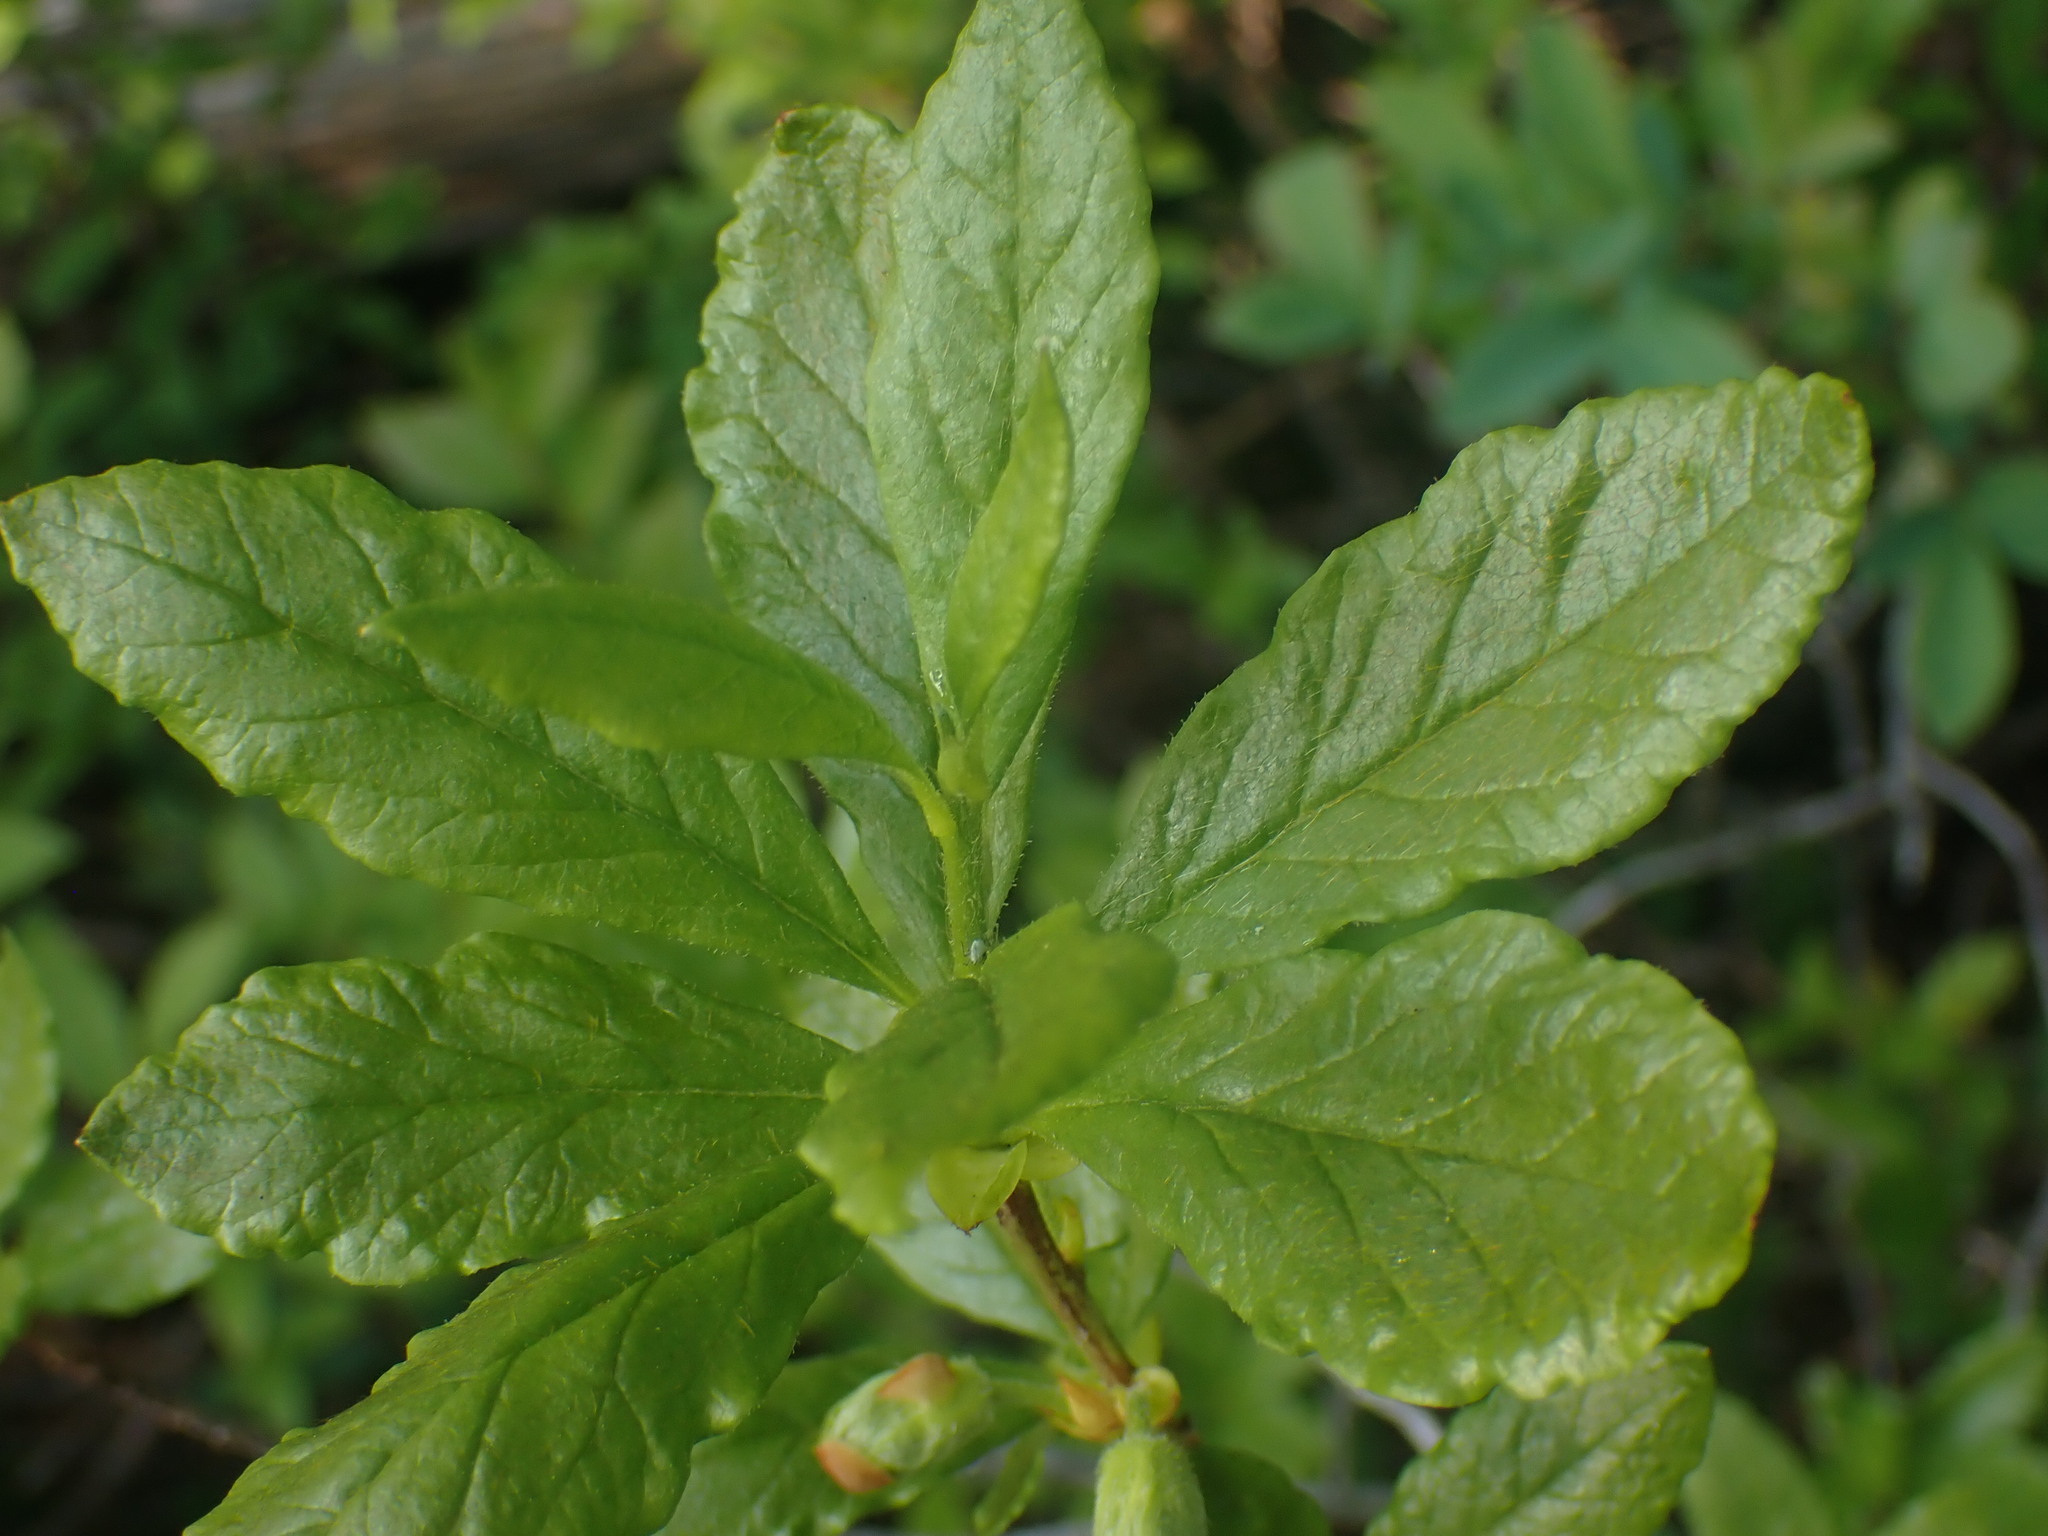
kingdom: Plantae
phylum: Tracheophyta
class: Magnoliopsida
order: Ericales
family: Ericaceae
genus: Rhododendron
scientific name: Rhododendron albiflorum
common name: White rhododendron
